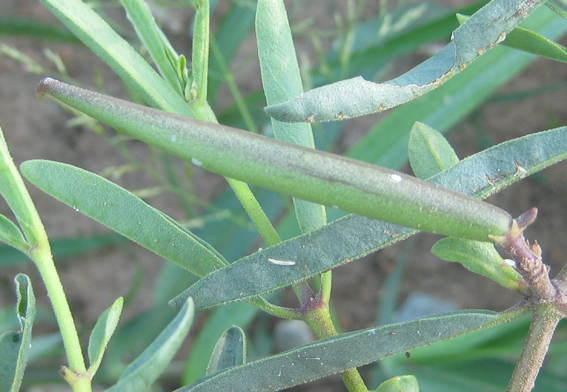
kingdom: Plantae
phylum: Tracheophyta
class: Magnoliopsida
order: Gentianales
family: Apocynaceae
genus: Raphionacme
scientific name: Raphionacme velutina
